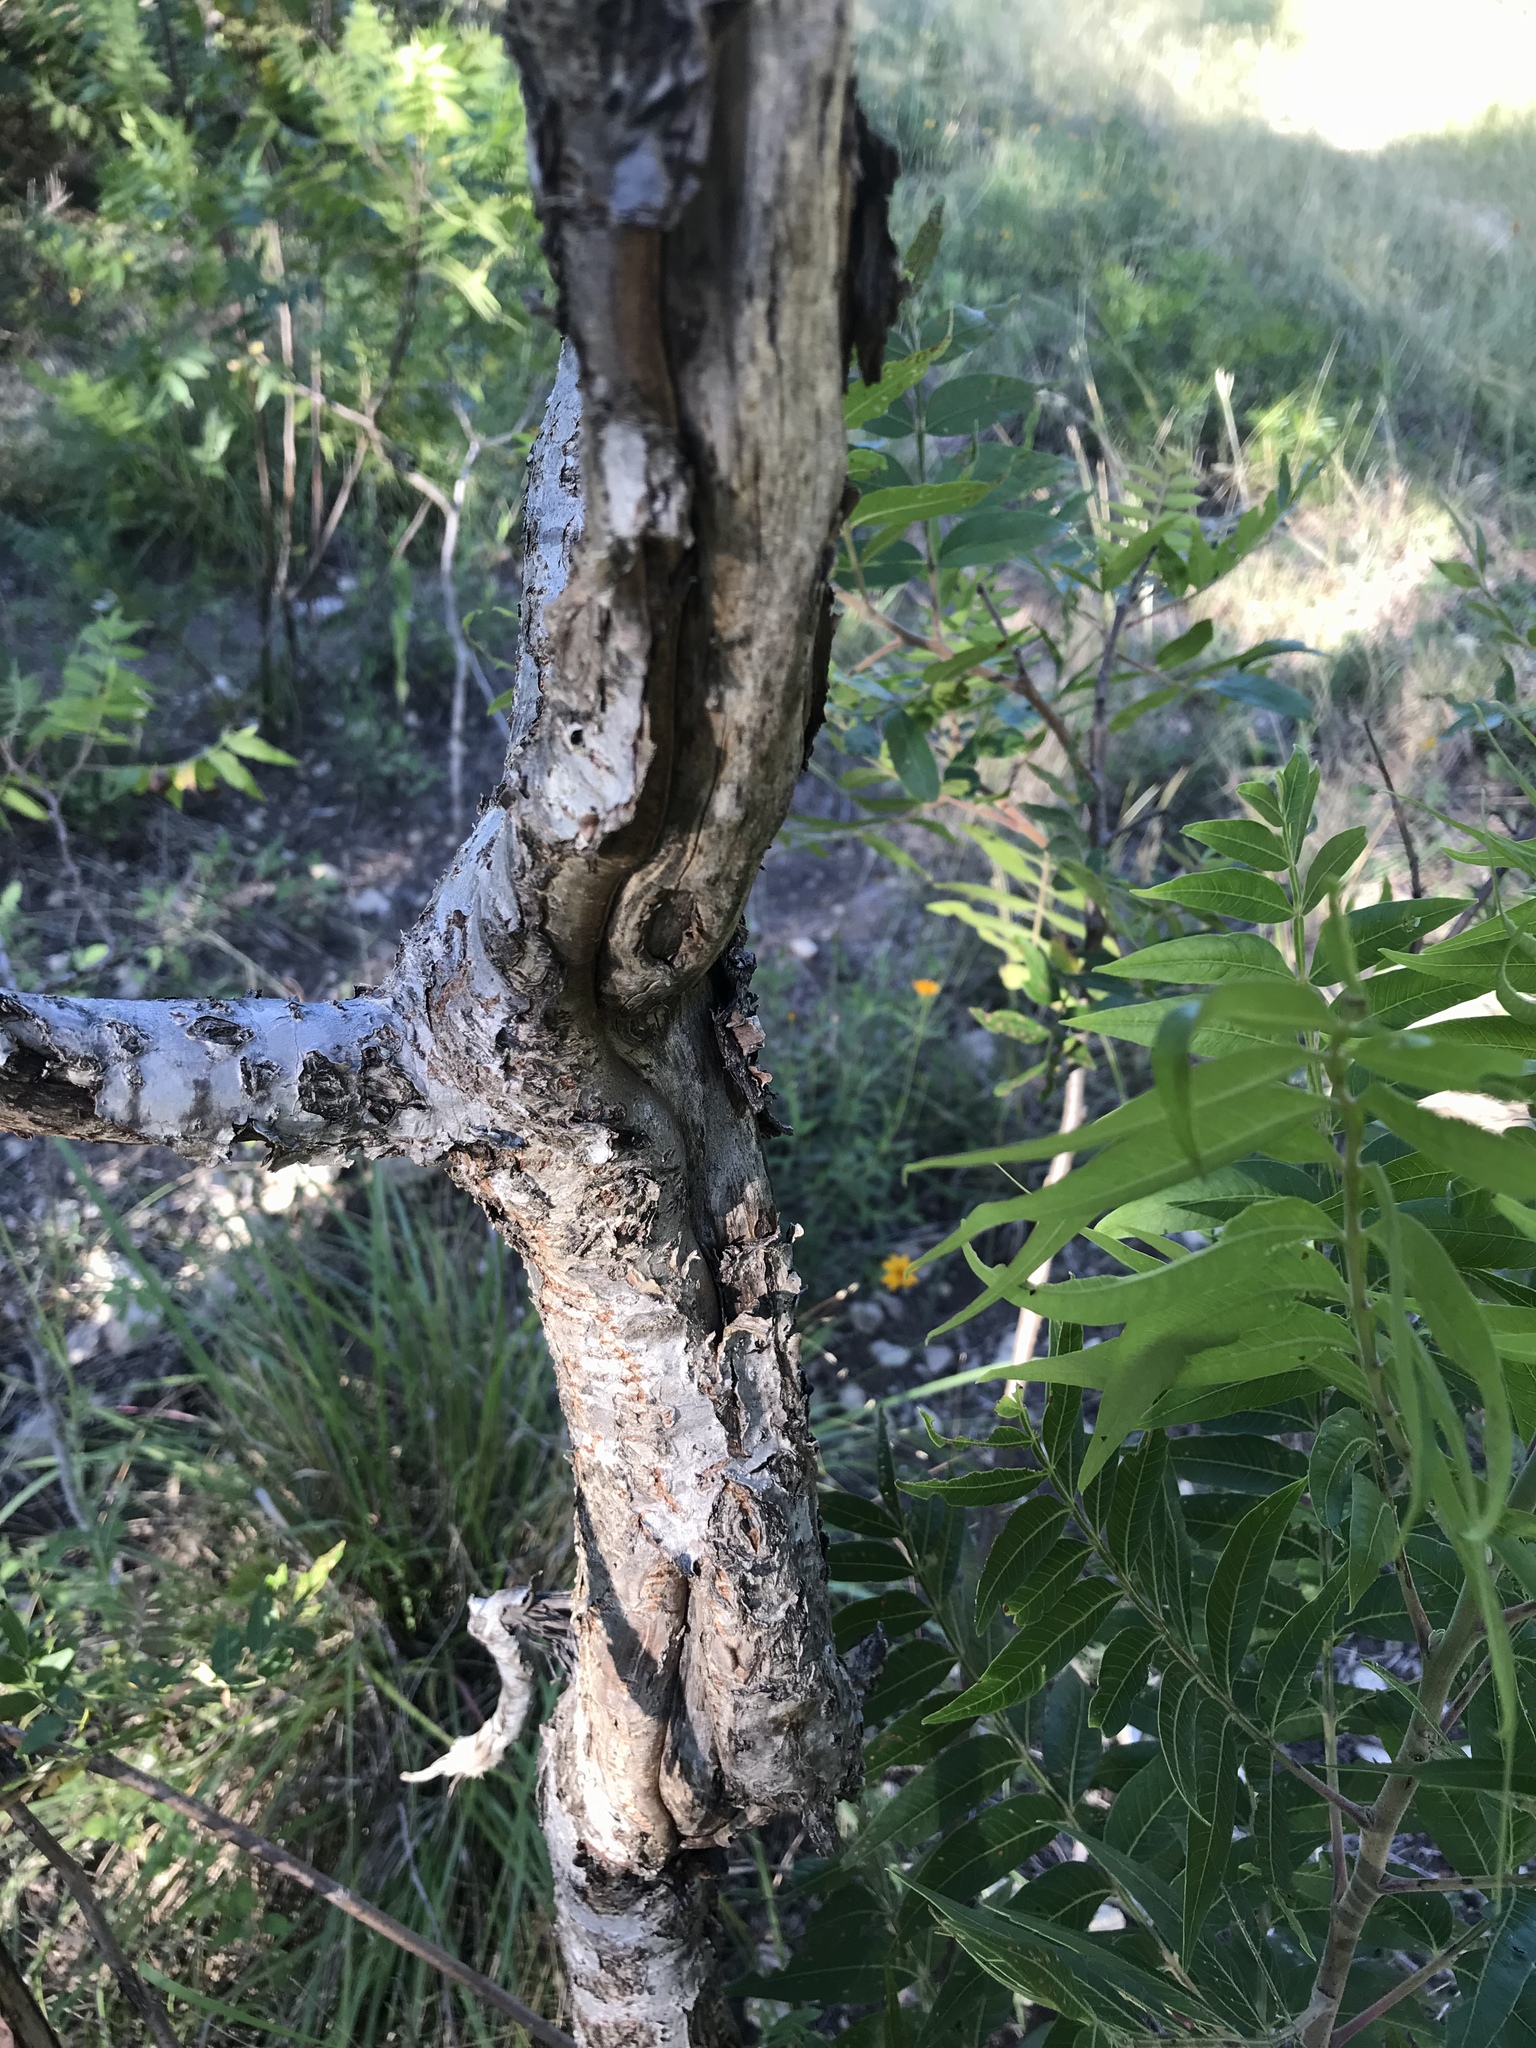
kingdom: Plantae
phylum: Tracheophyta
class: Magnoliopsida
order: Sapindales
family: Anacardiaceae
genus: Rhus
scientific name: Rhus lanceolata
